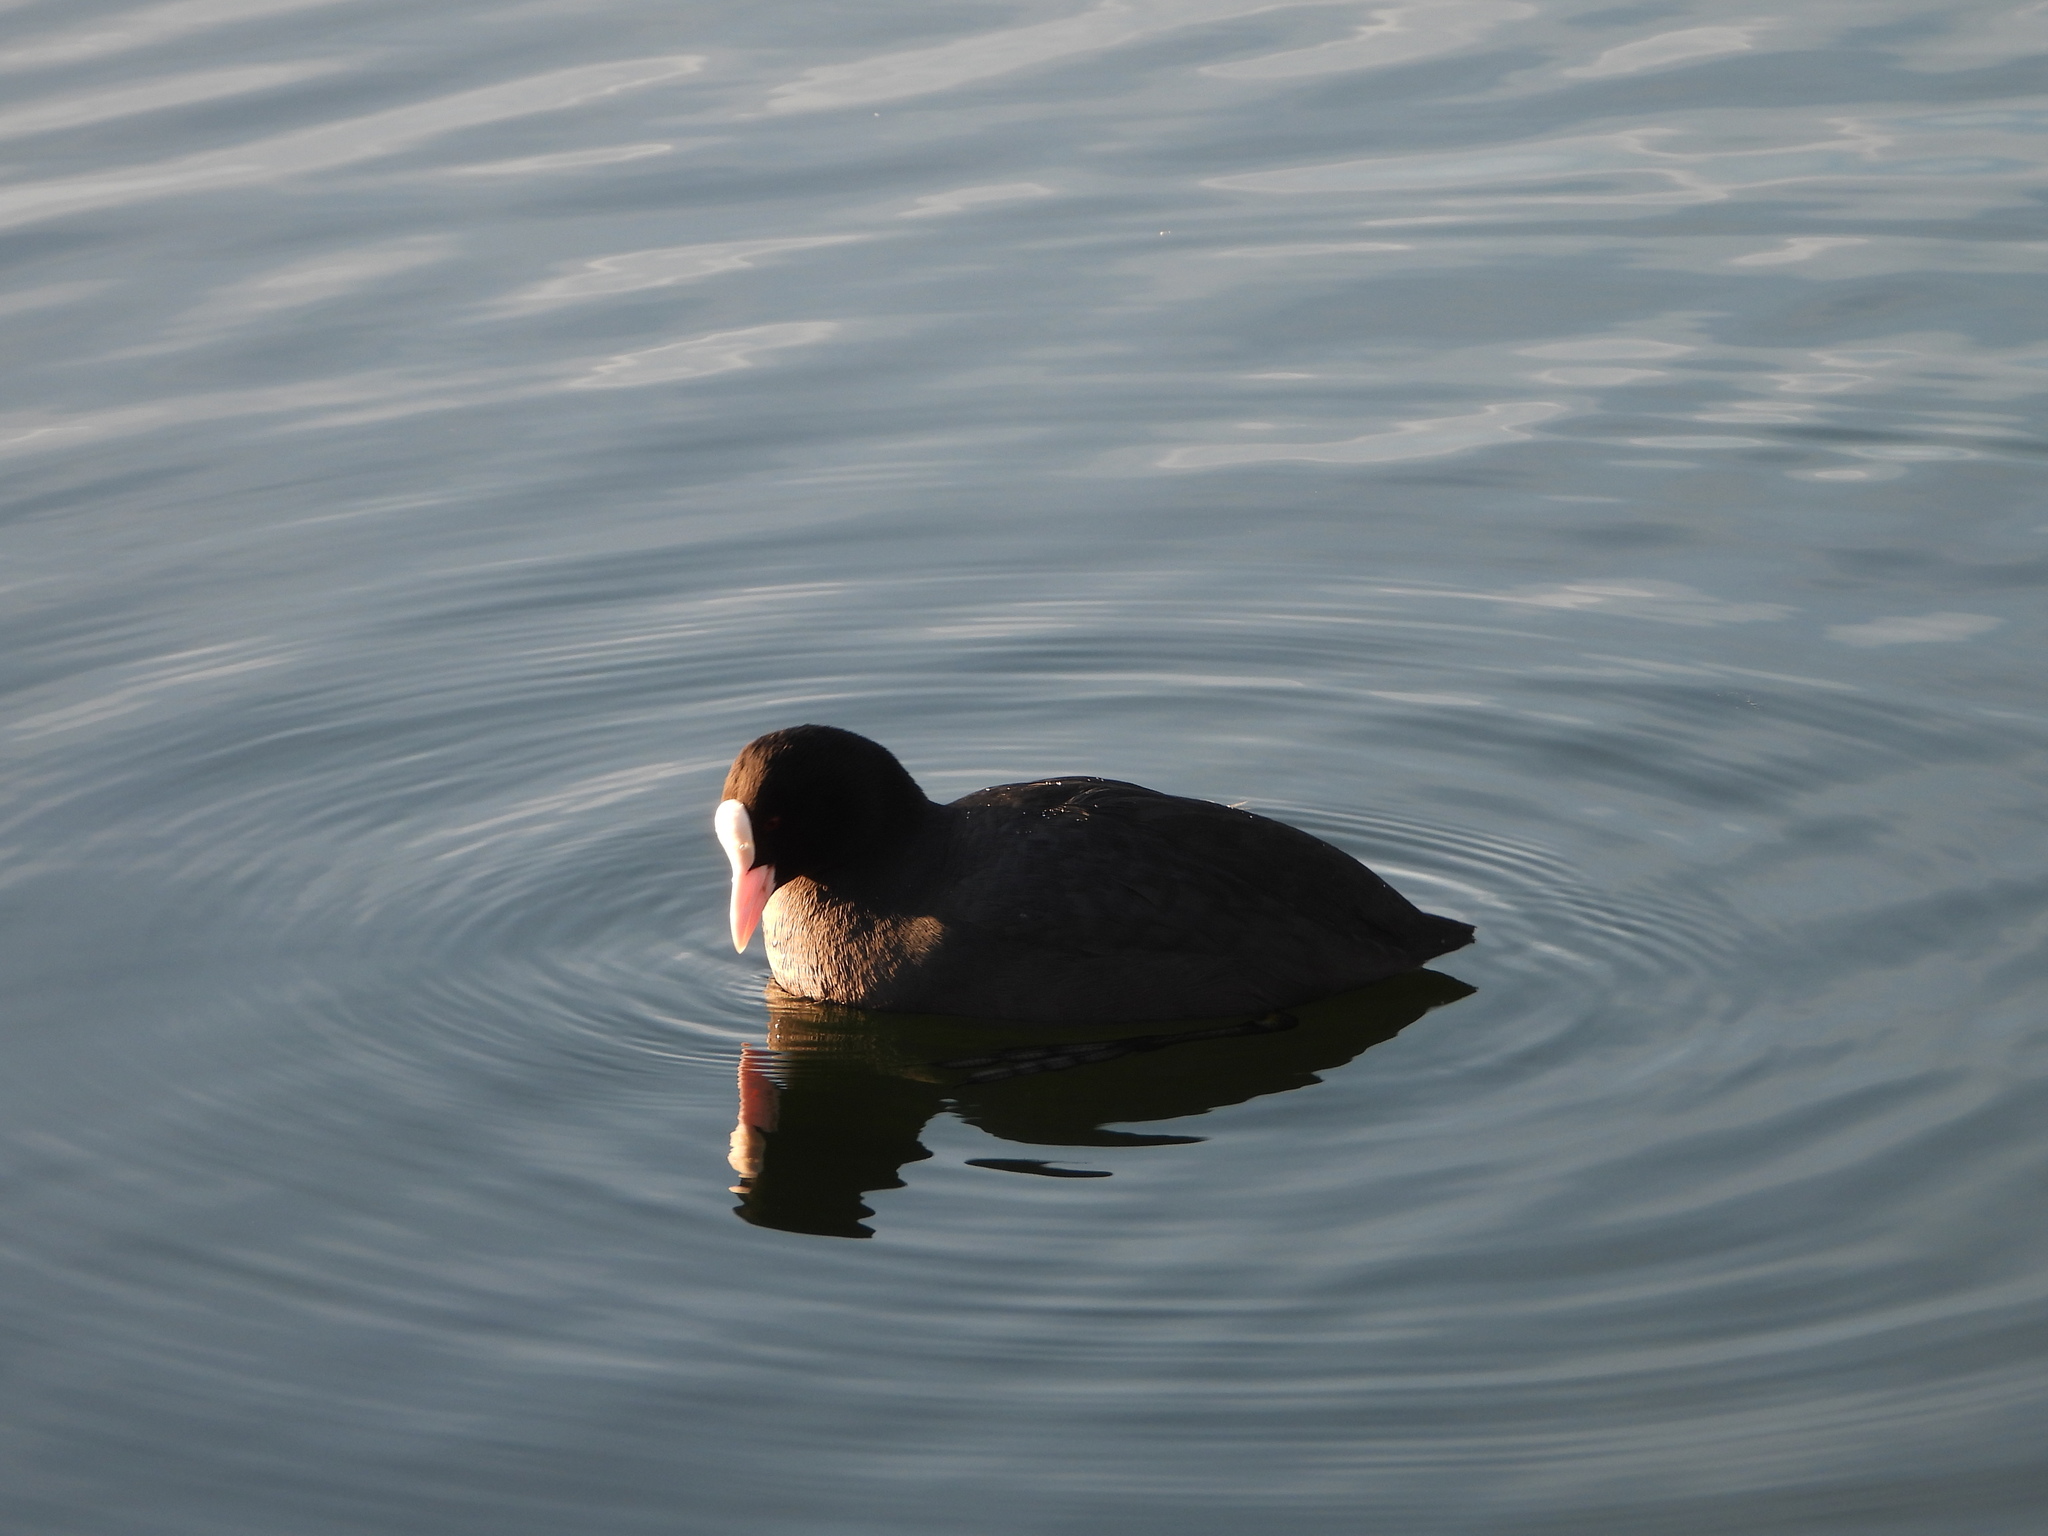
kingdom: Animalia
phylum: Chordata
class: Aves
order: Gruiformes
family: Rallidae
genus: Fulica
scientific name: Fulica atra
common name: Eurasian coot
